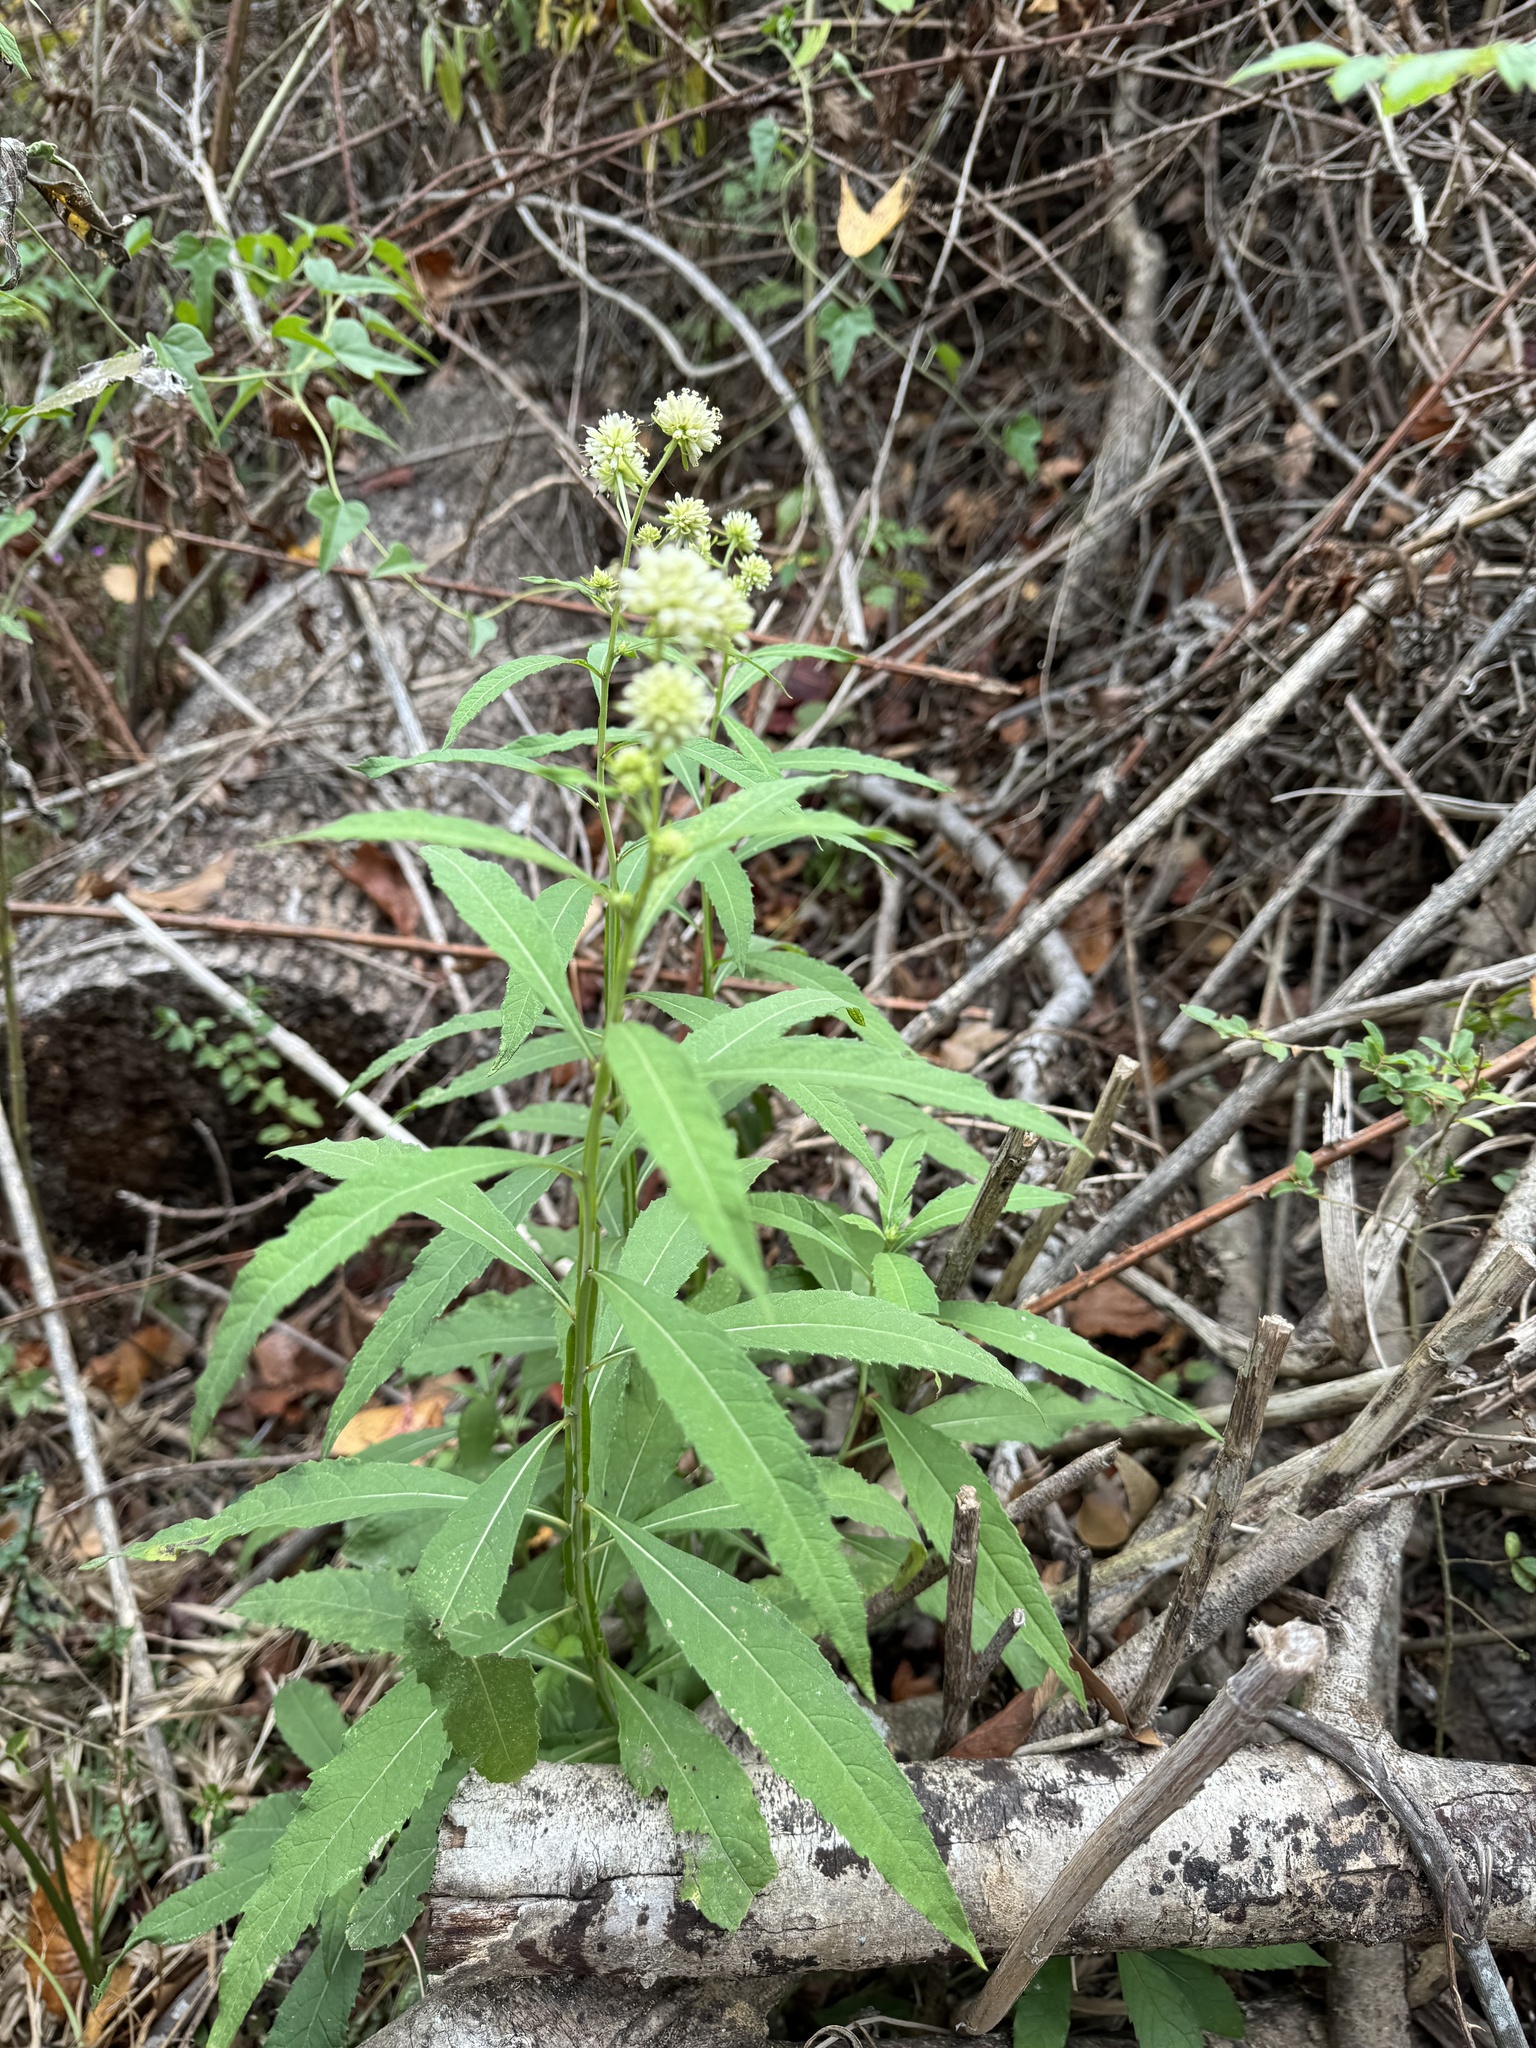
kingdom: Plantae
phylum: Tracheophyta
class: Magnoliopsida
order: Asterales
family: Asteraceae
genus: Verbesina
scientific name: Verbesina walteri
